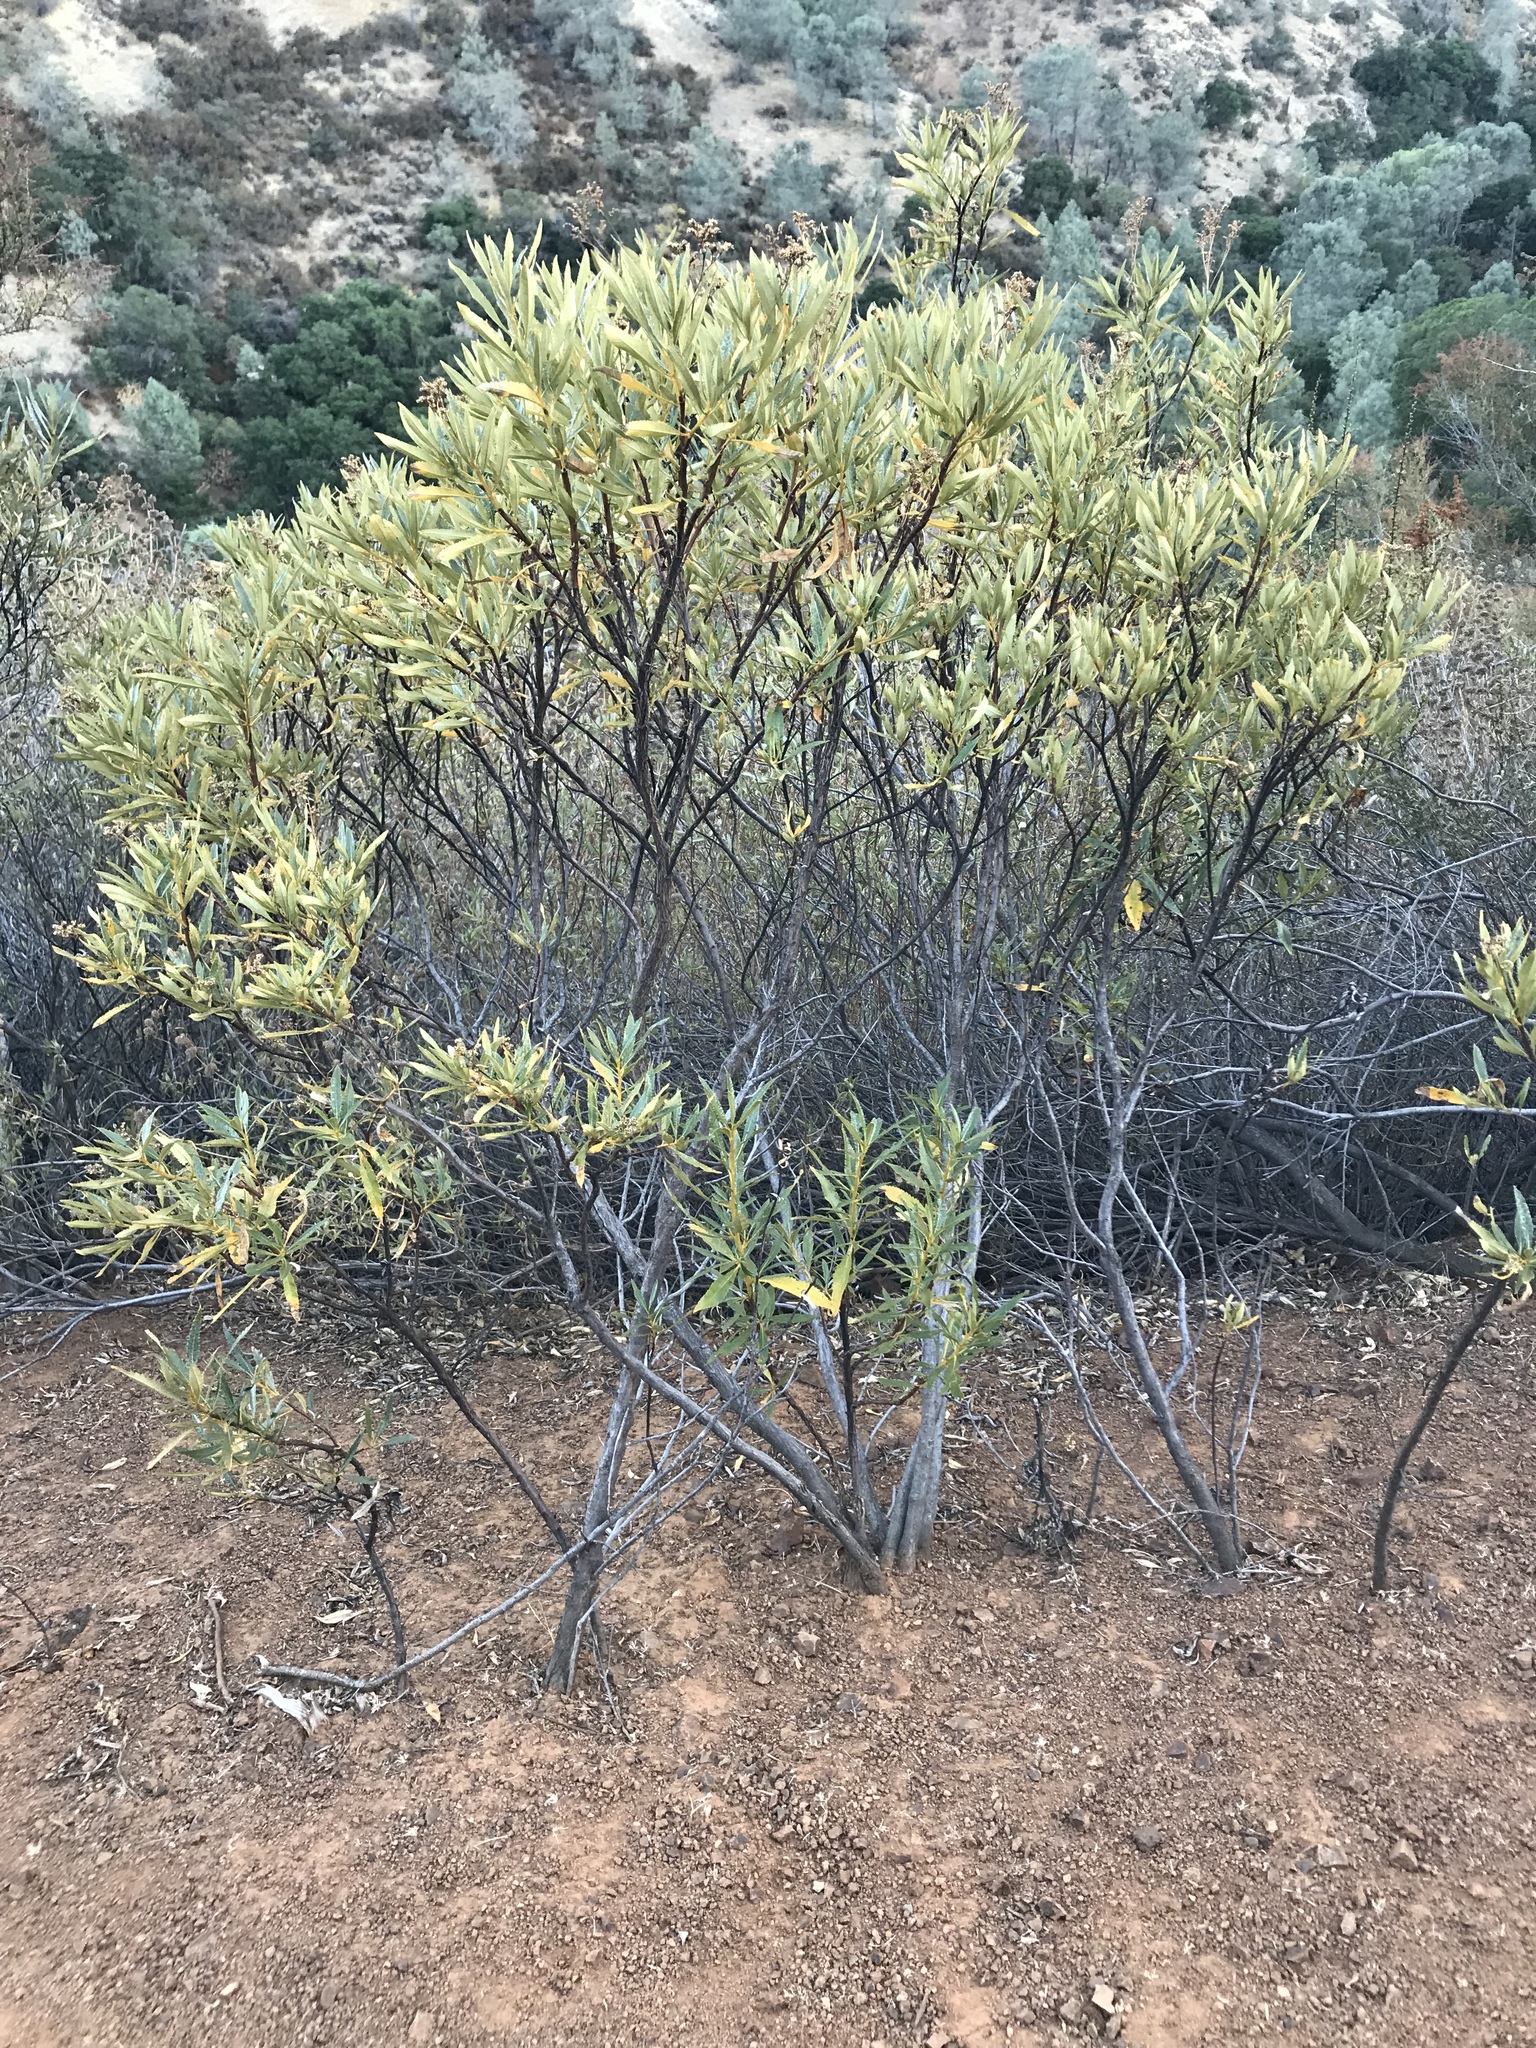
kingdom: Plantae
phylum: Tracheophyta
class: Magnoliopsida
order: Boraginales
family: Namaceae
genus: Eriodictyon
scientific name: Eriodictyon californicum
